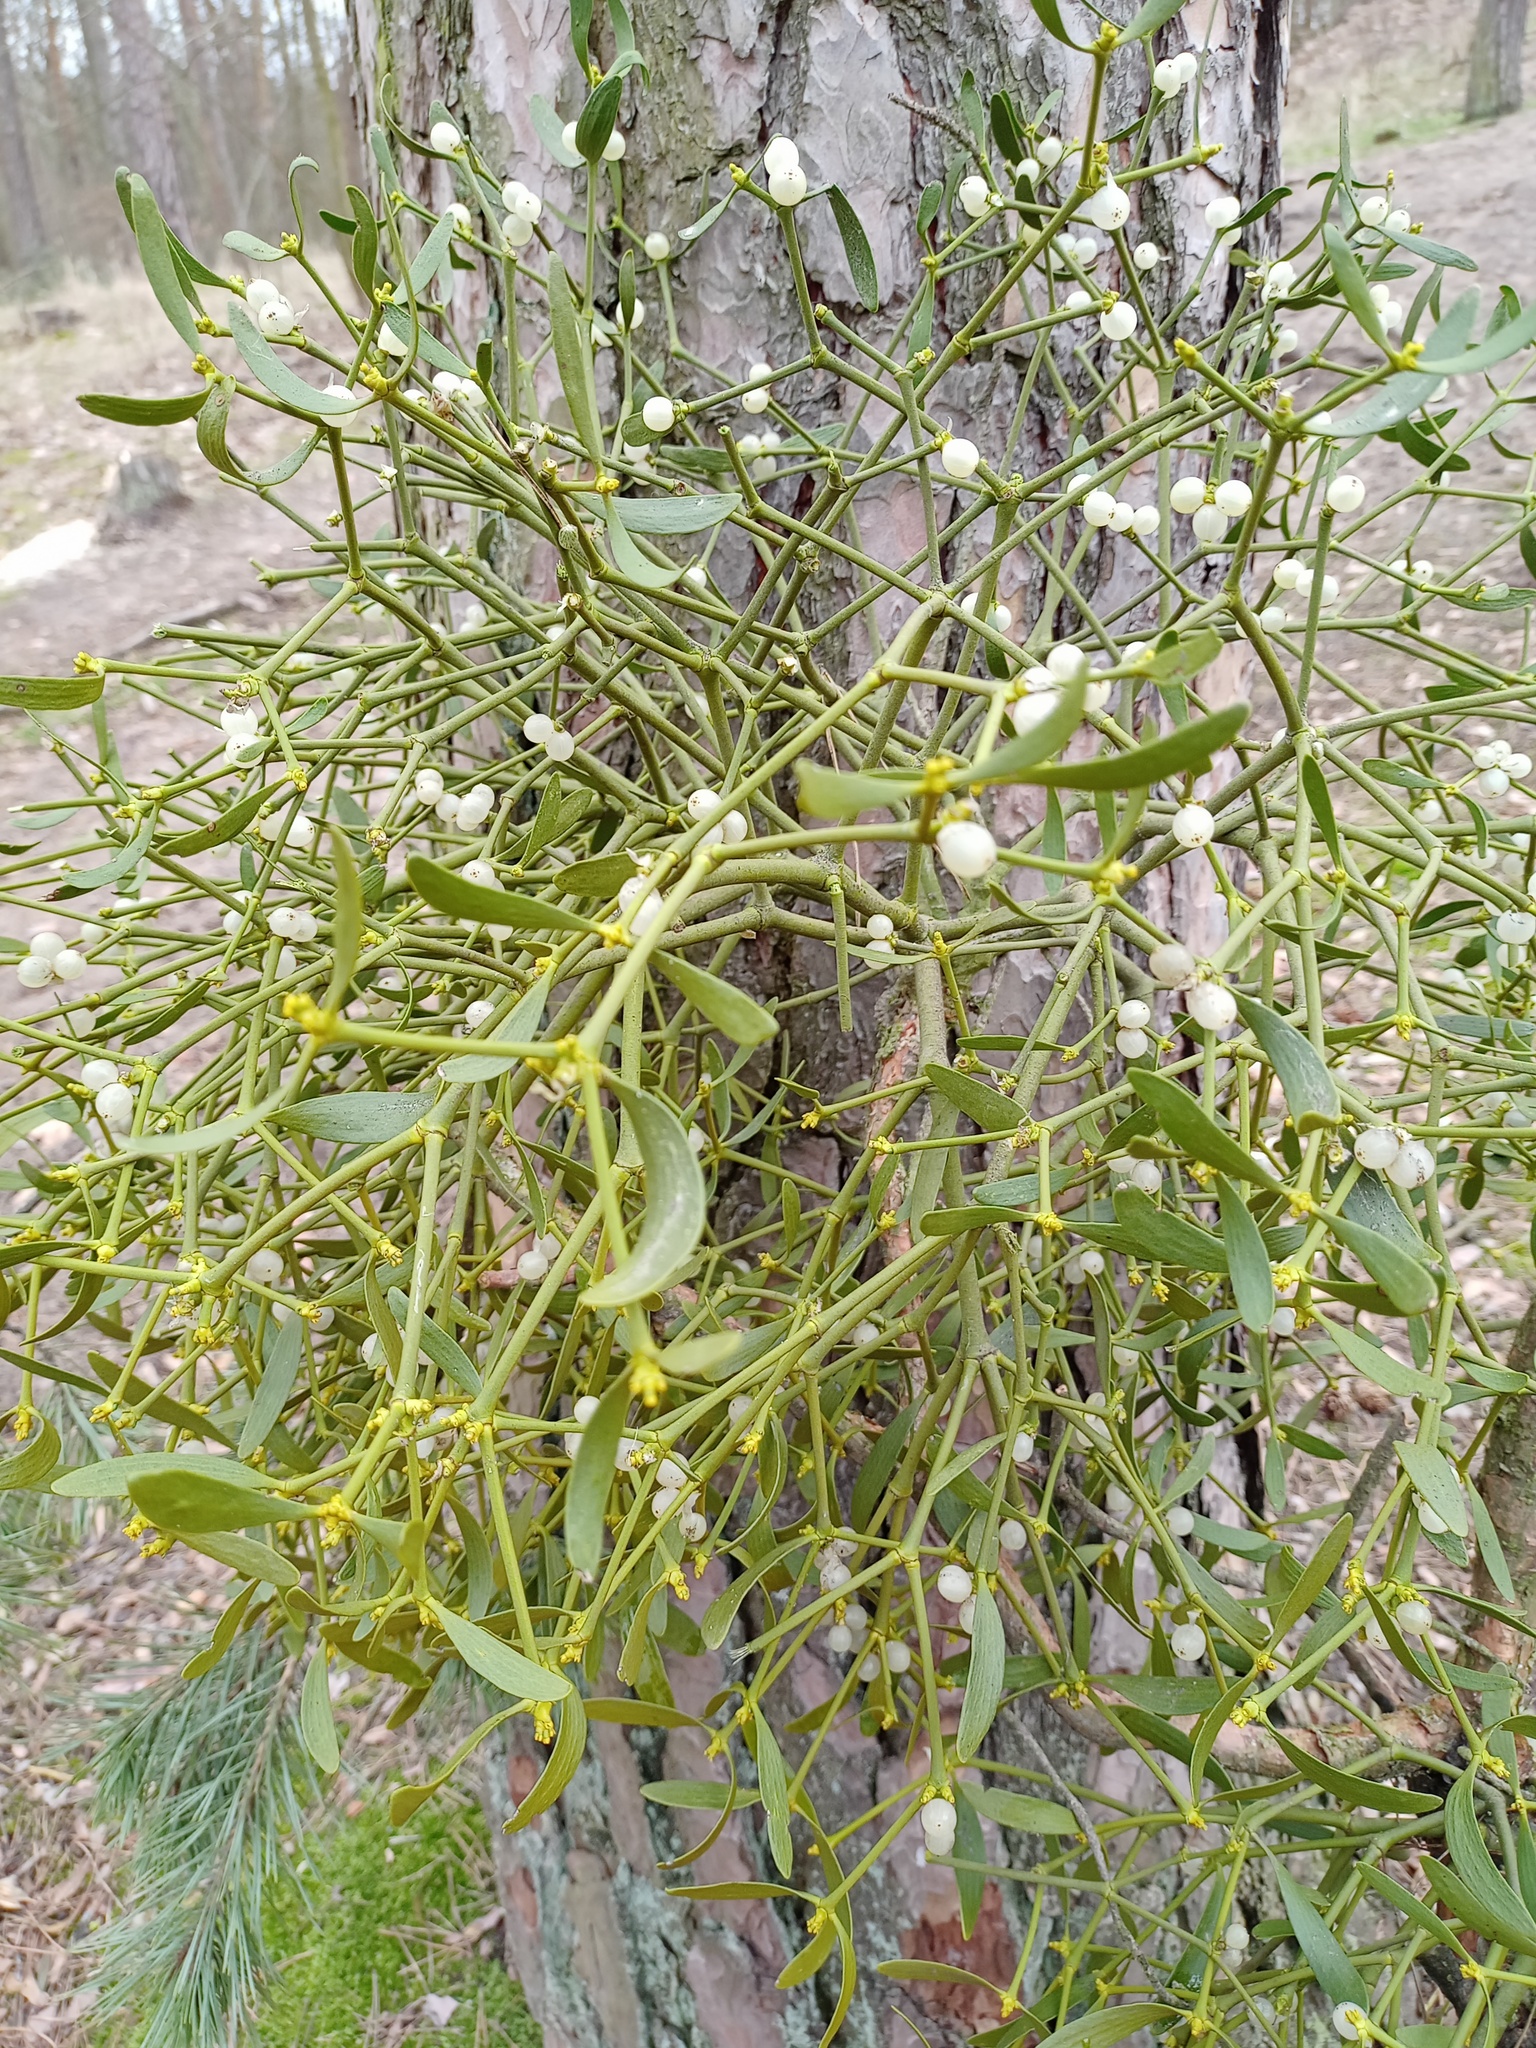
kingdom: Plantae
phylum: Tracheophyta
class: Magnoliopsida
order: Santalales
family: Viscaceae
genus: Viscum
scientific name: Viscum laxum
